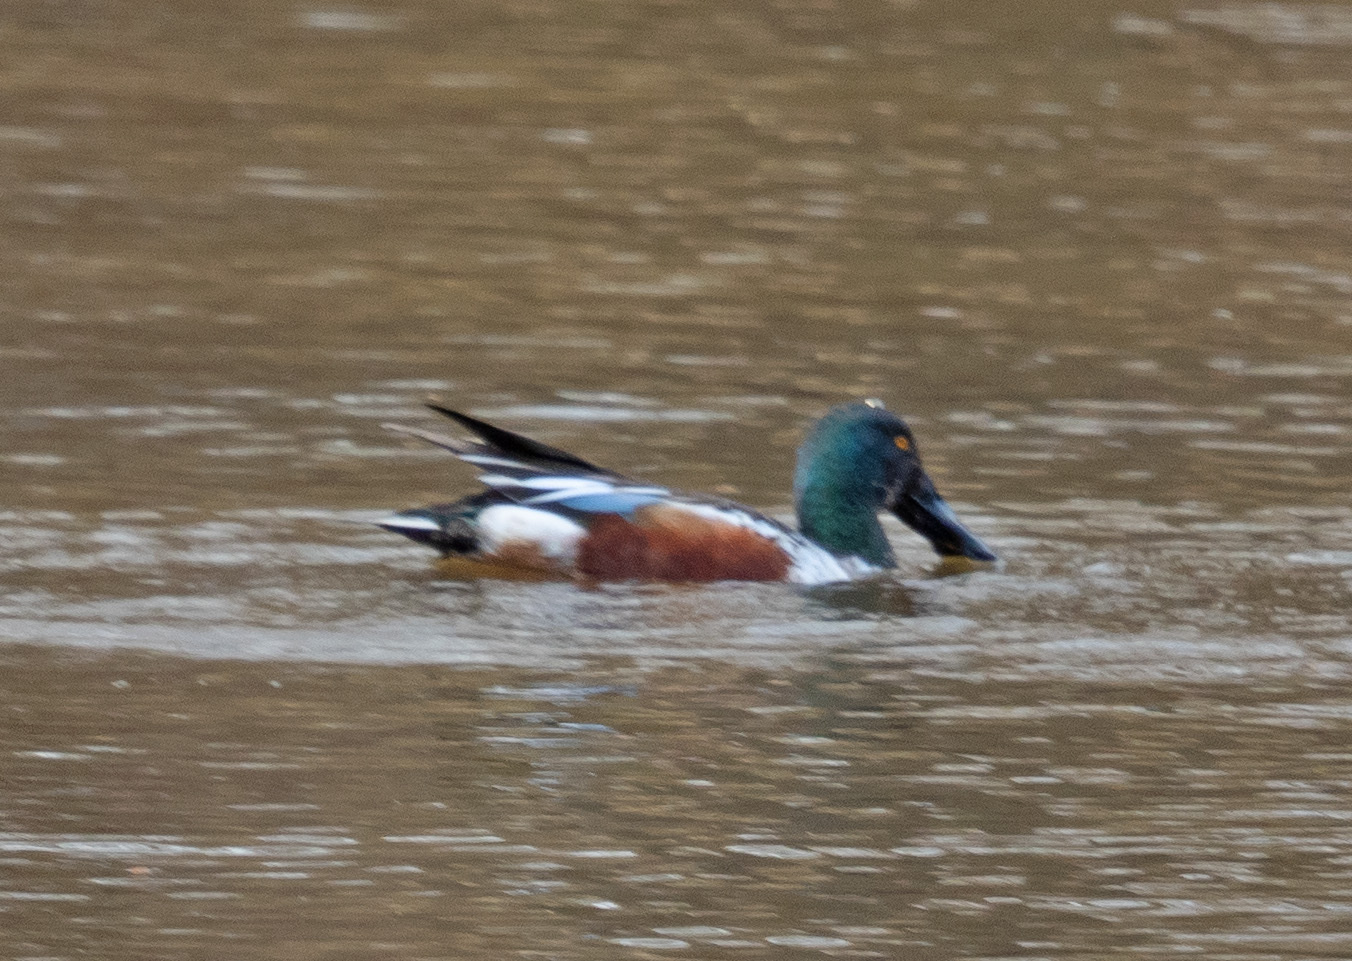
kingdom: Animalia
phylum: Chordata
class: Aves
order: Anseriformes
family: Anatidae
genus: Spatula
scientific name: Spatula clypeata
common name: Northern shoveler
